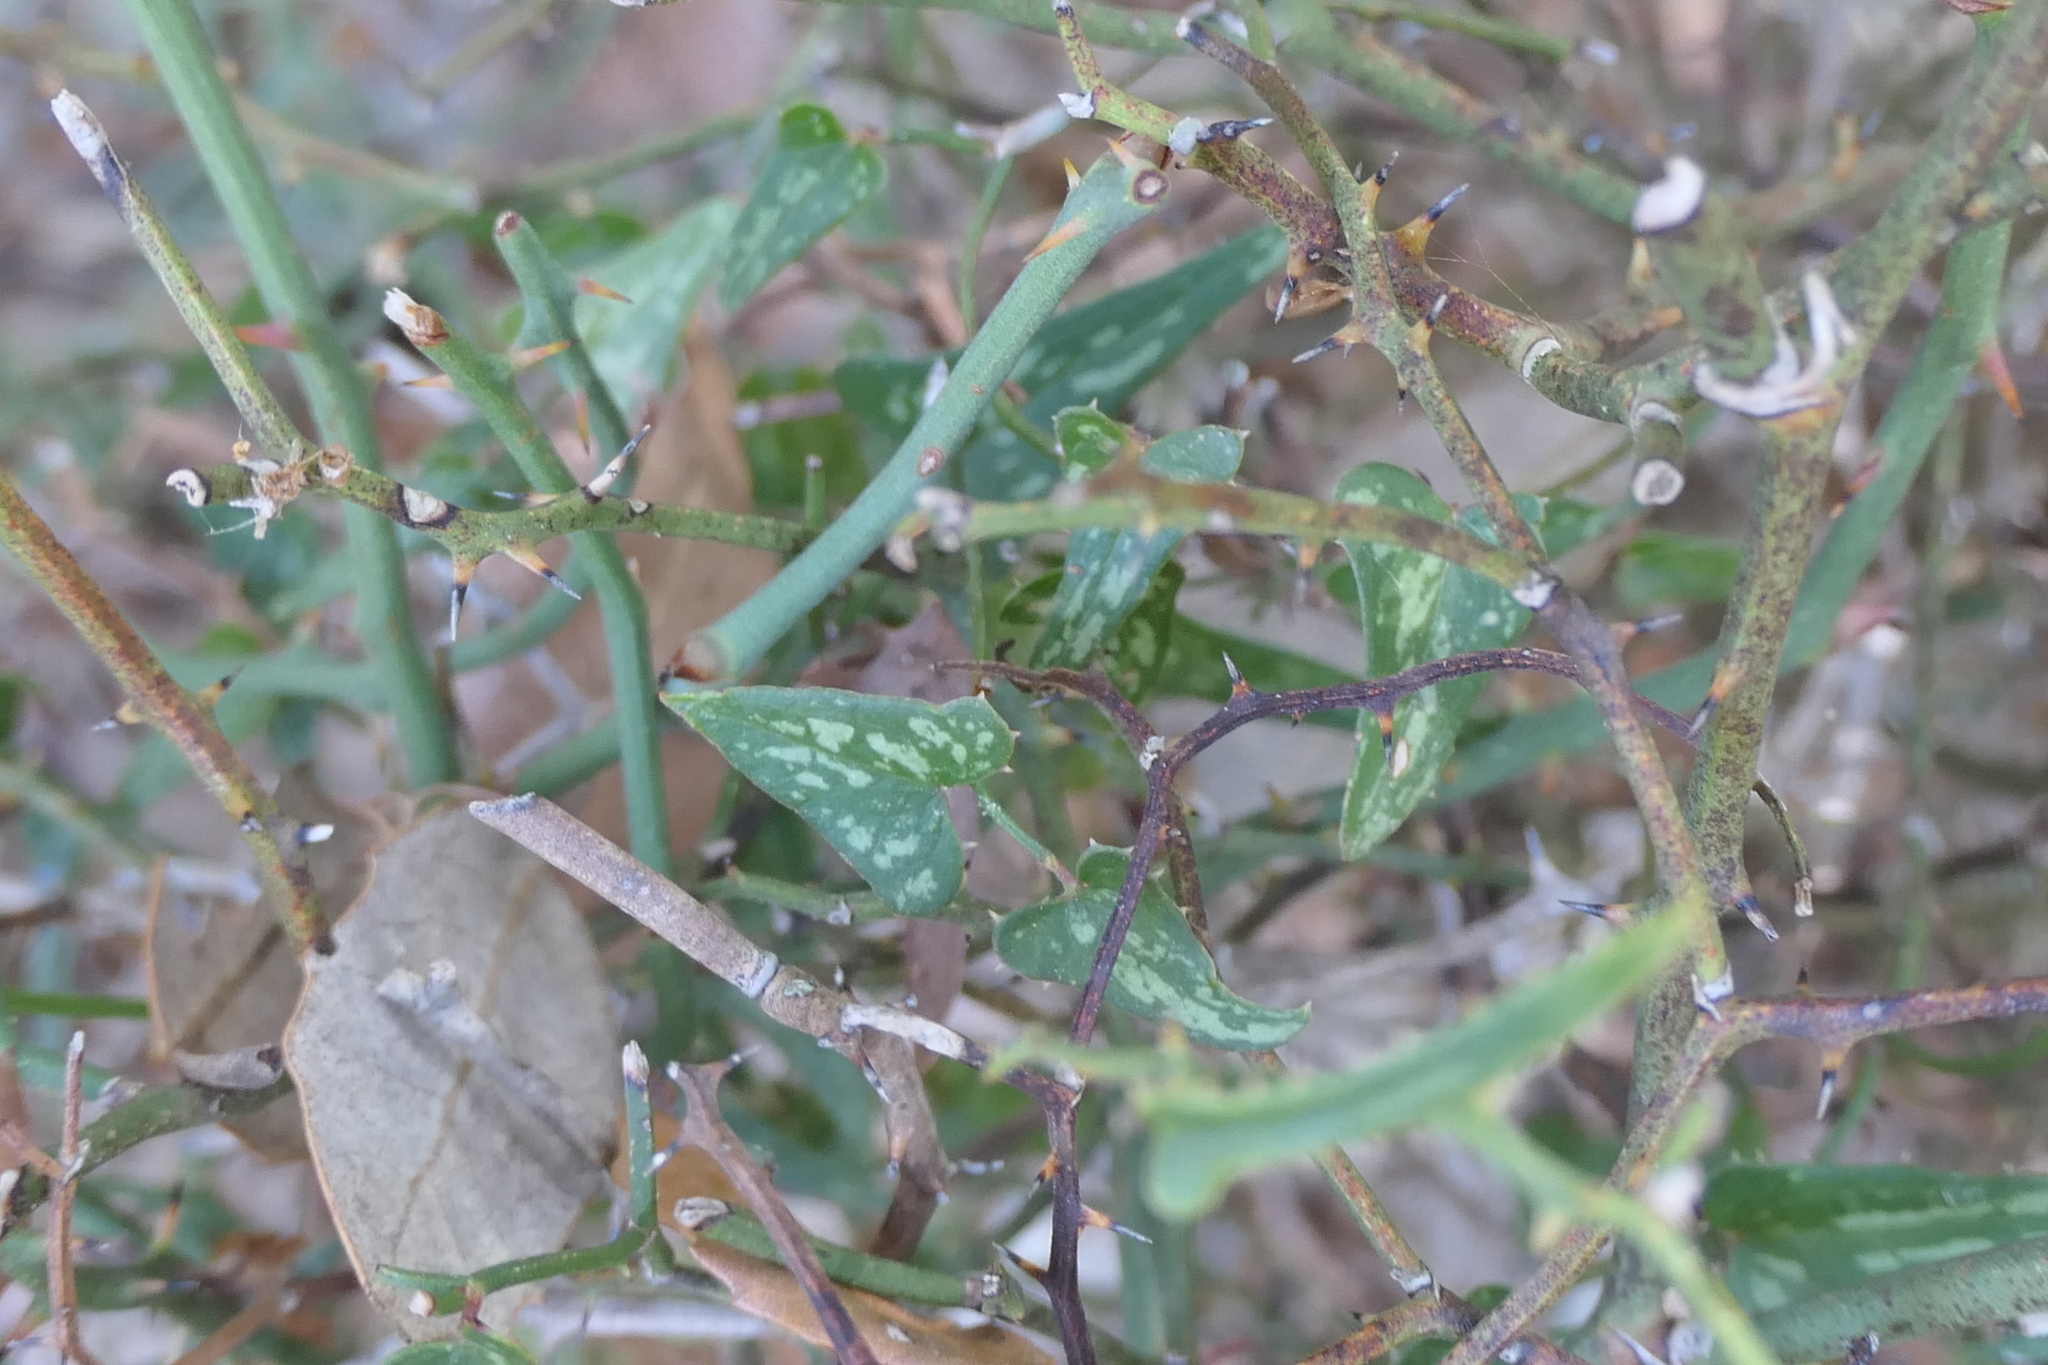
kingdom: Plantae
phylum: Tracheophyta
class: Liliopsida
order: Liliales
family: Smilacaceae
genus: Smilax
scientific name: Smilax aspera
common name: Common smilax
